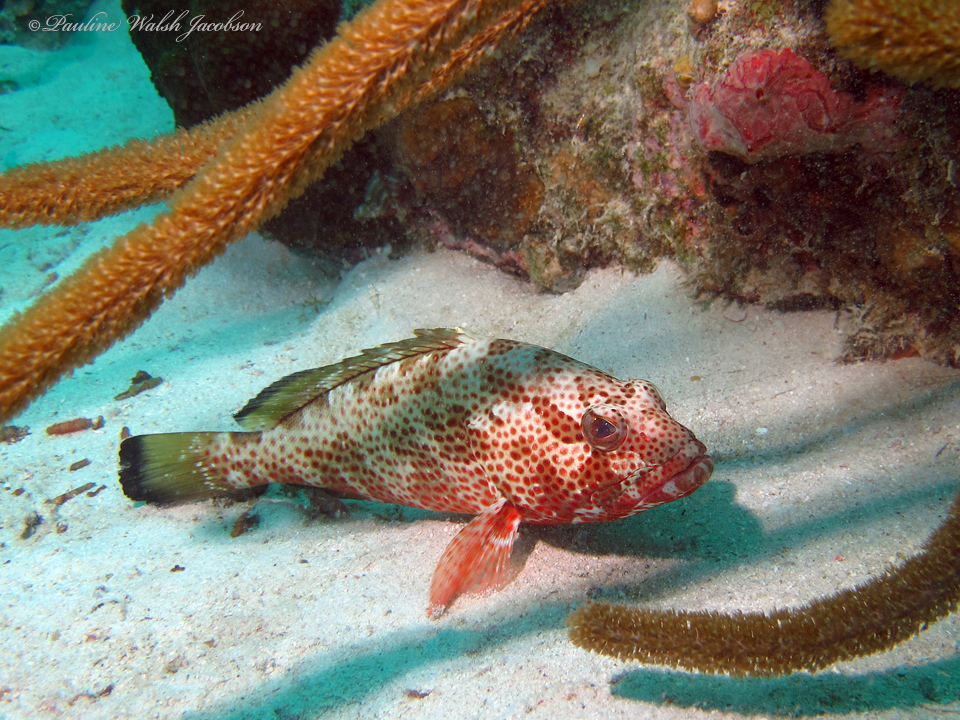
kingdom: Animalia
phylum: Chordata
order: Perciformes
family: Serranidae
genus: Epinephelus
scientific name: Epinephelus guttatus
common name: Red hind
